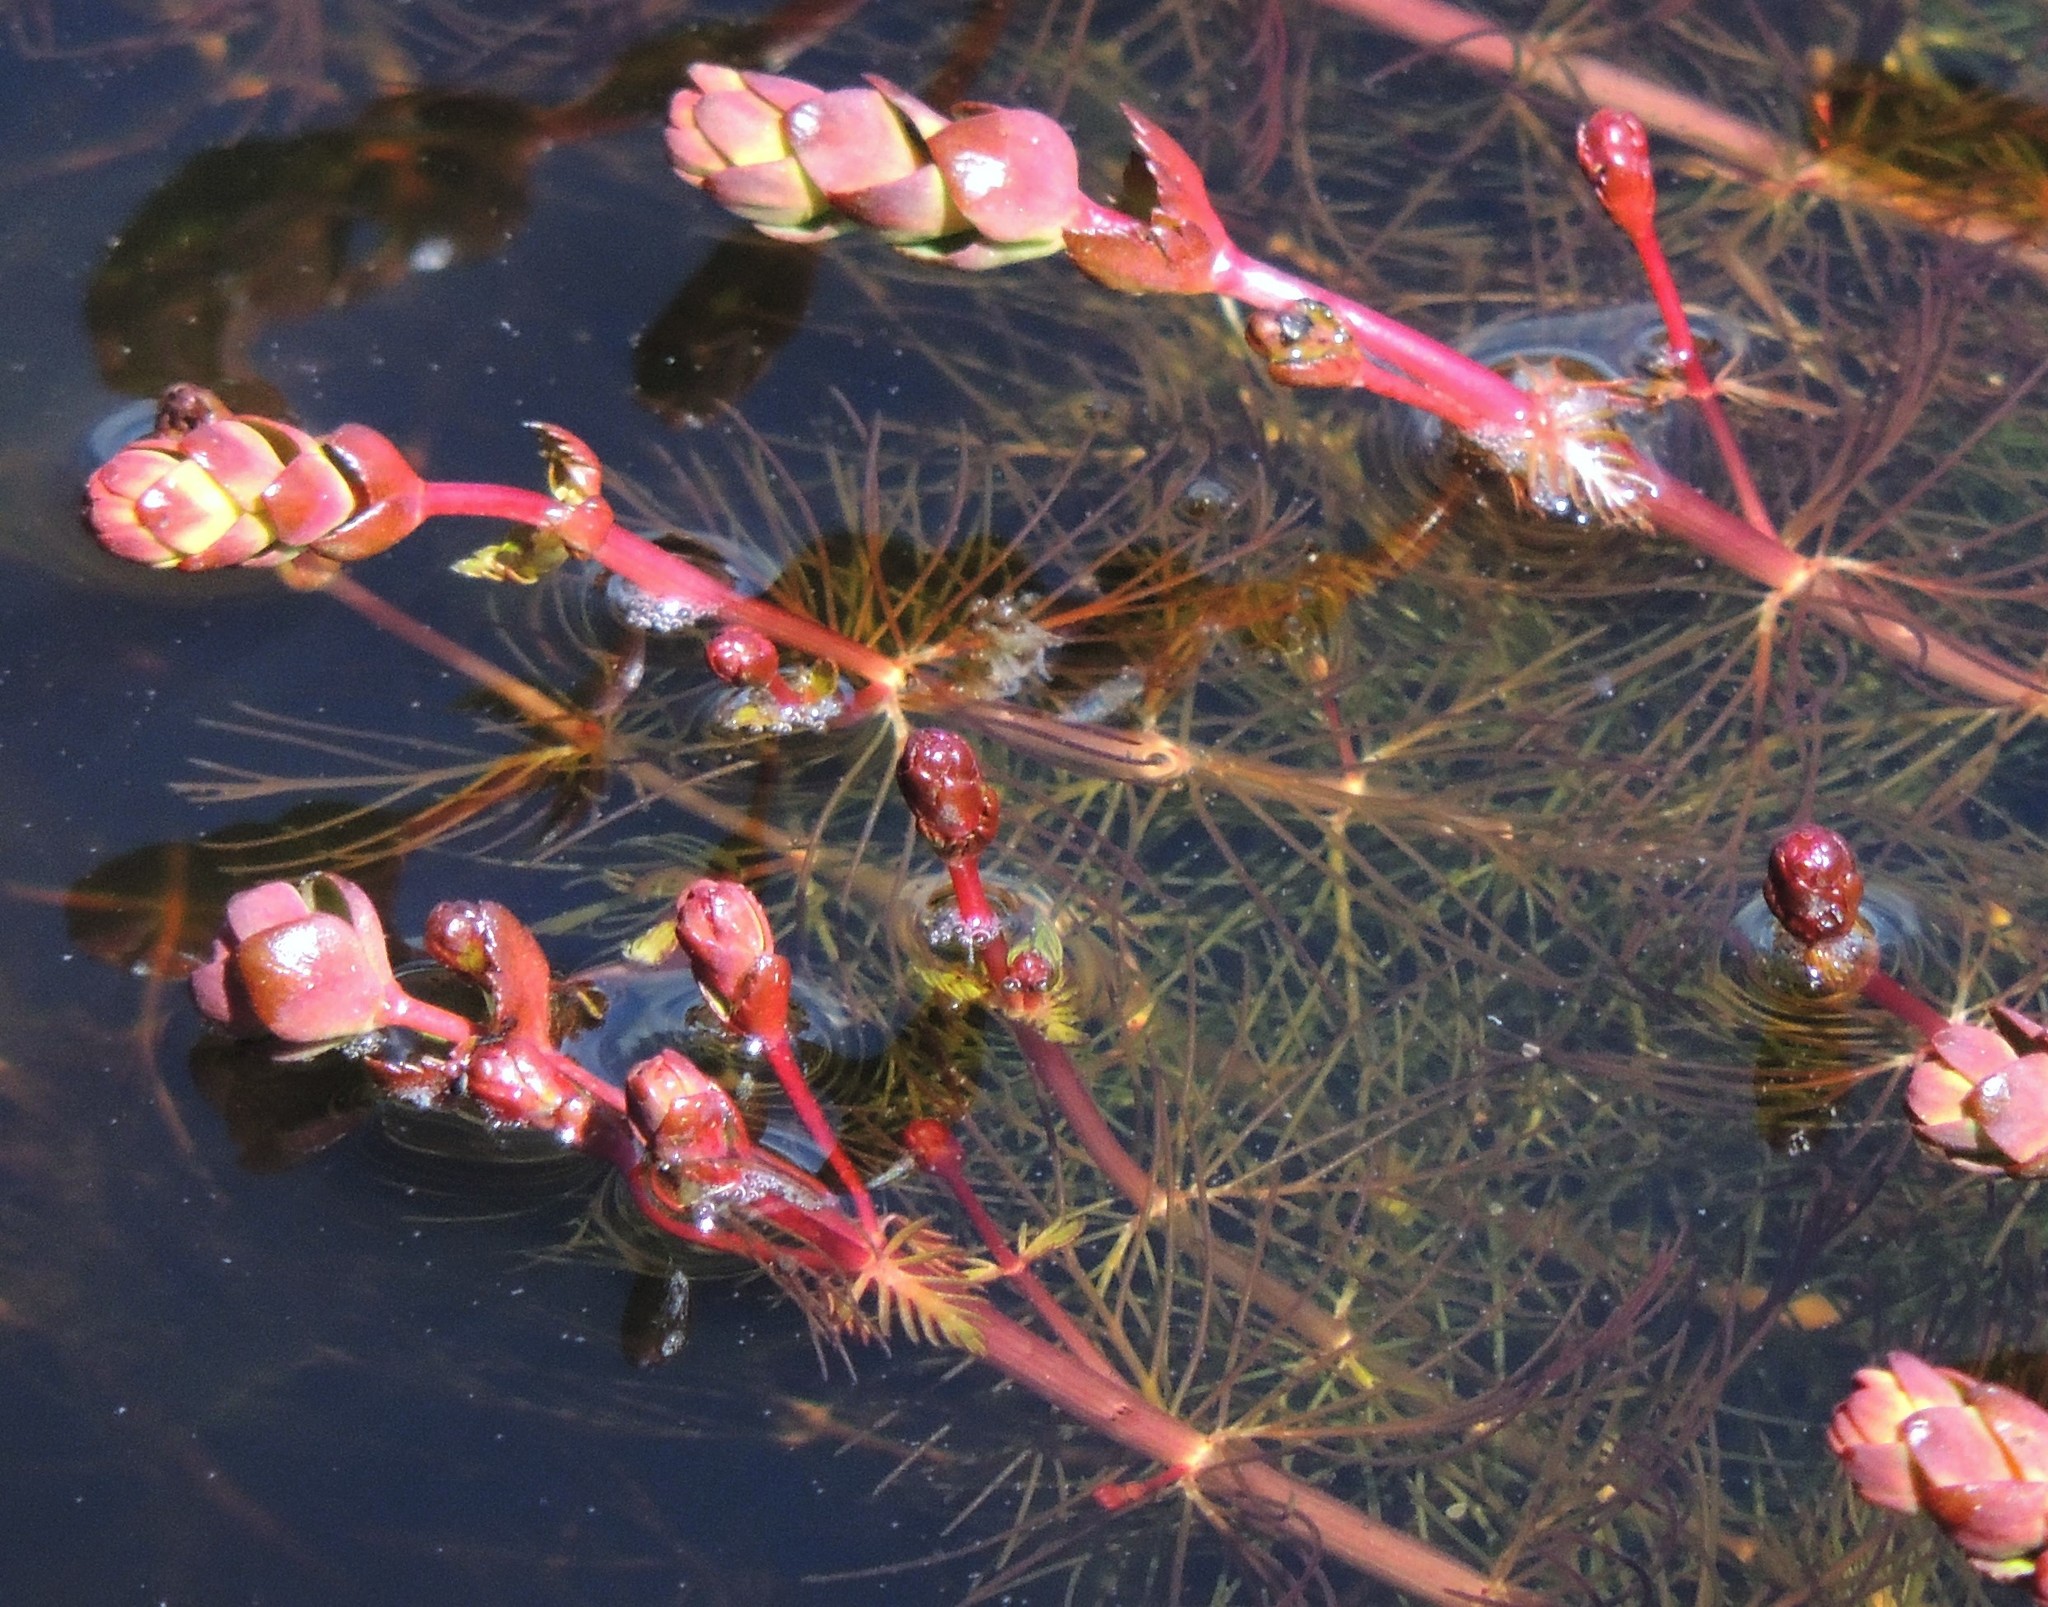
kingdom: Plantae
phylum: Tracheophyta
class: Magnoliopsida
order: Saxifragales
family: Haloragaceae
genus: Myriophyllum
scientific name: Myriophyllum quitense
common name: Andean water milfoil
